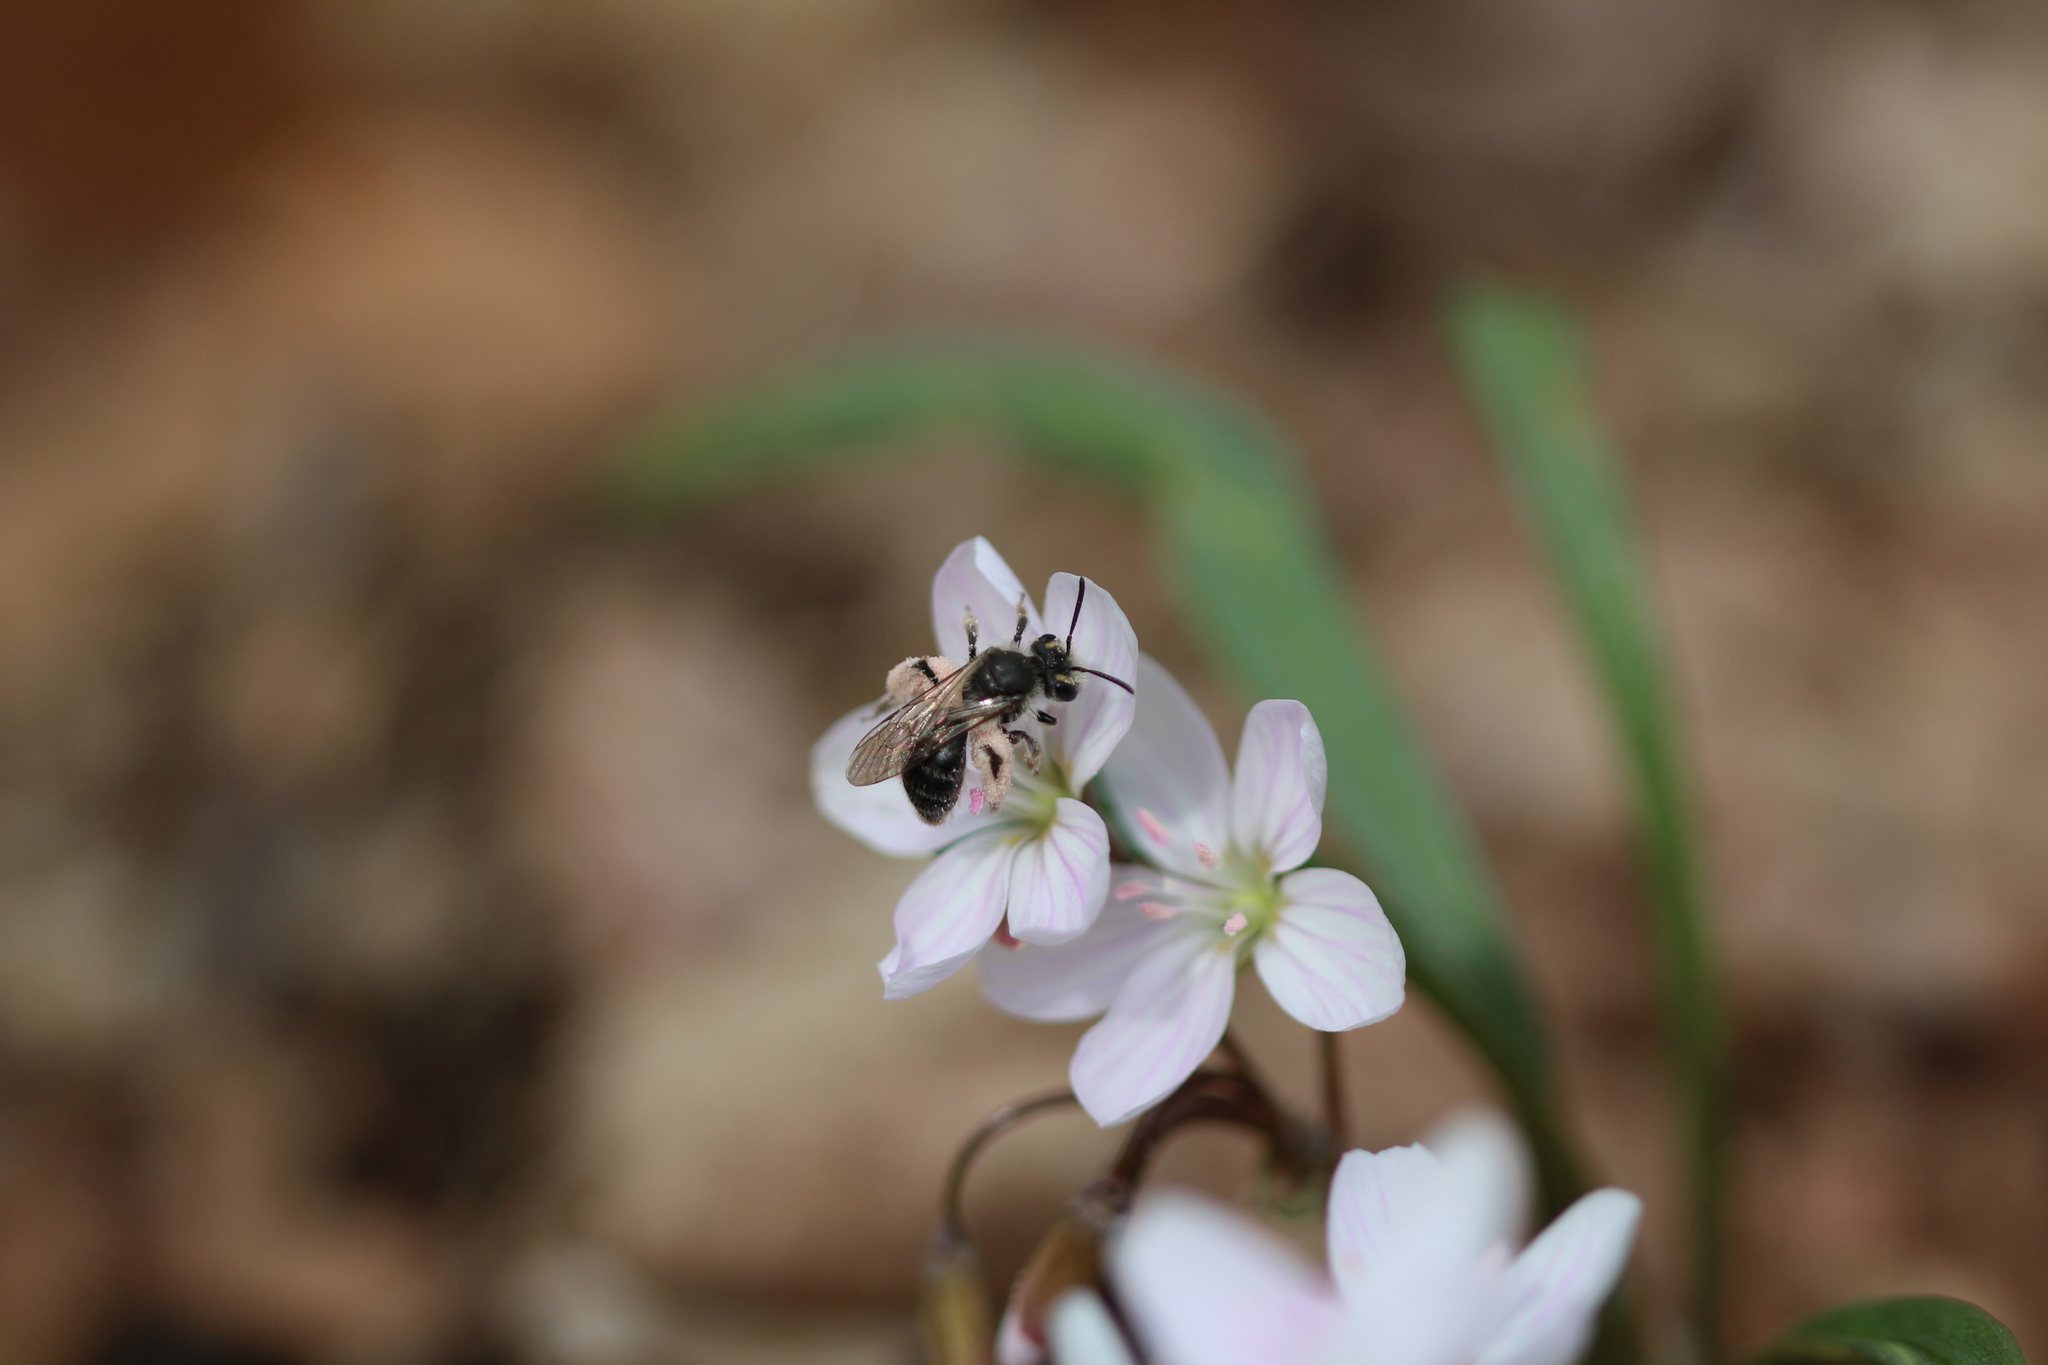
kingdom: Animalia
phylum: Arthropoda
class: Insecta
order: Hymenoptera
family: Andrenidae
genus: Andrena
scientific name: Andrena erigeniae
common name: Spring beauty miner
